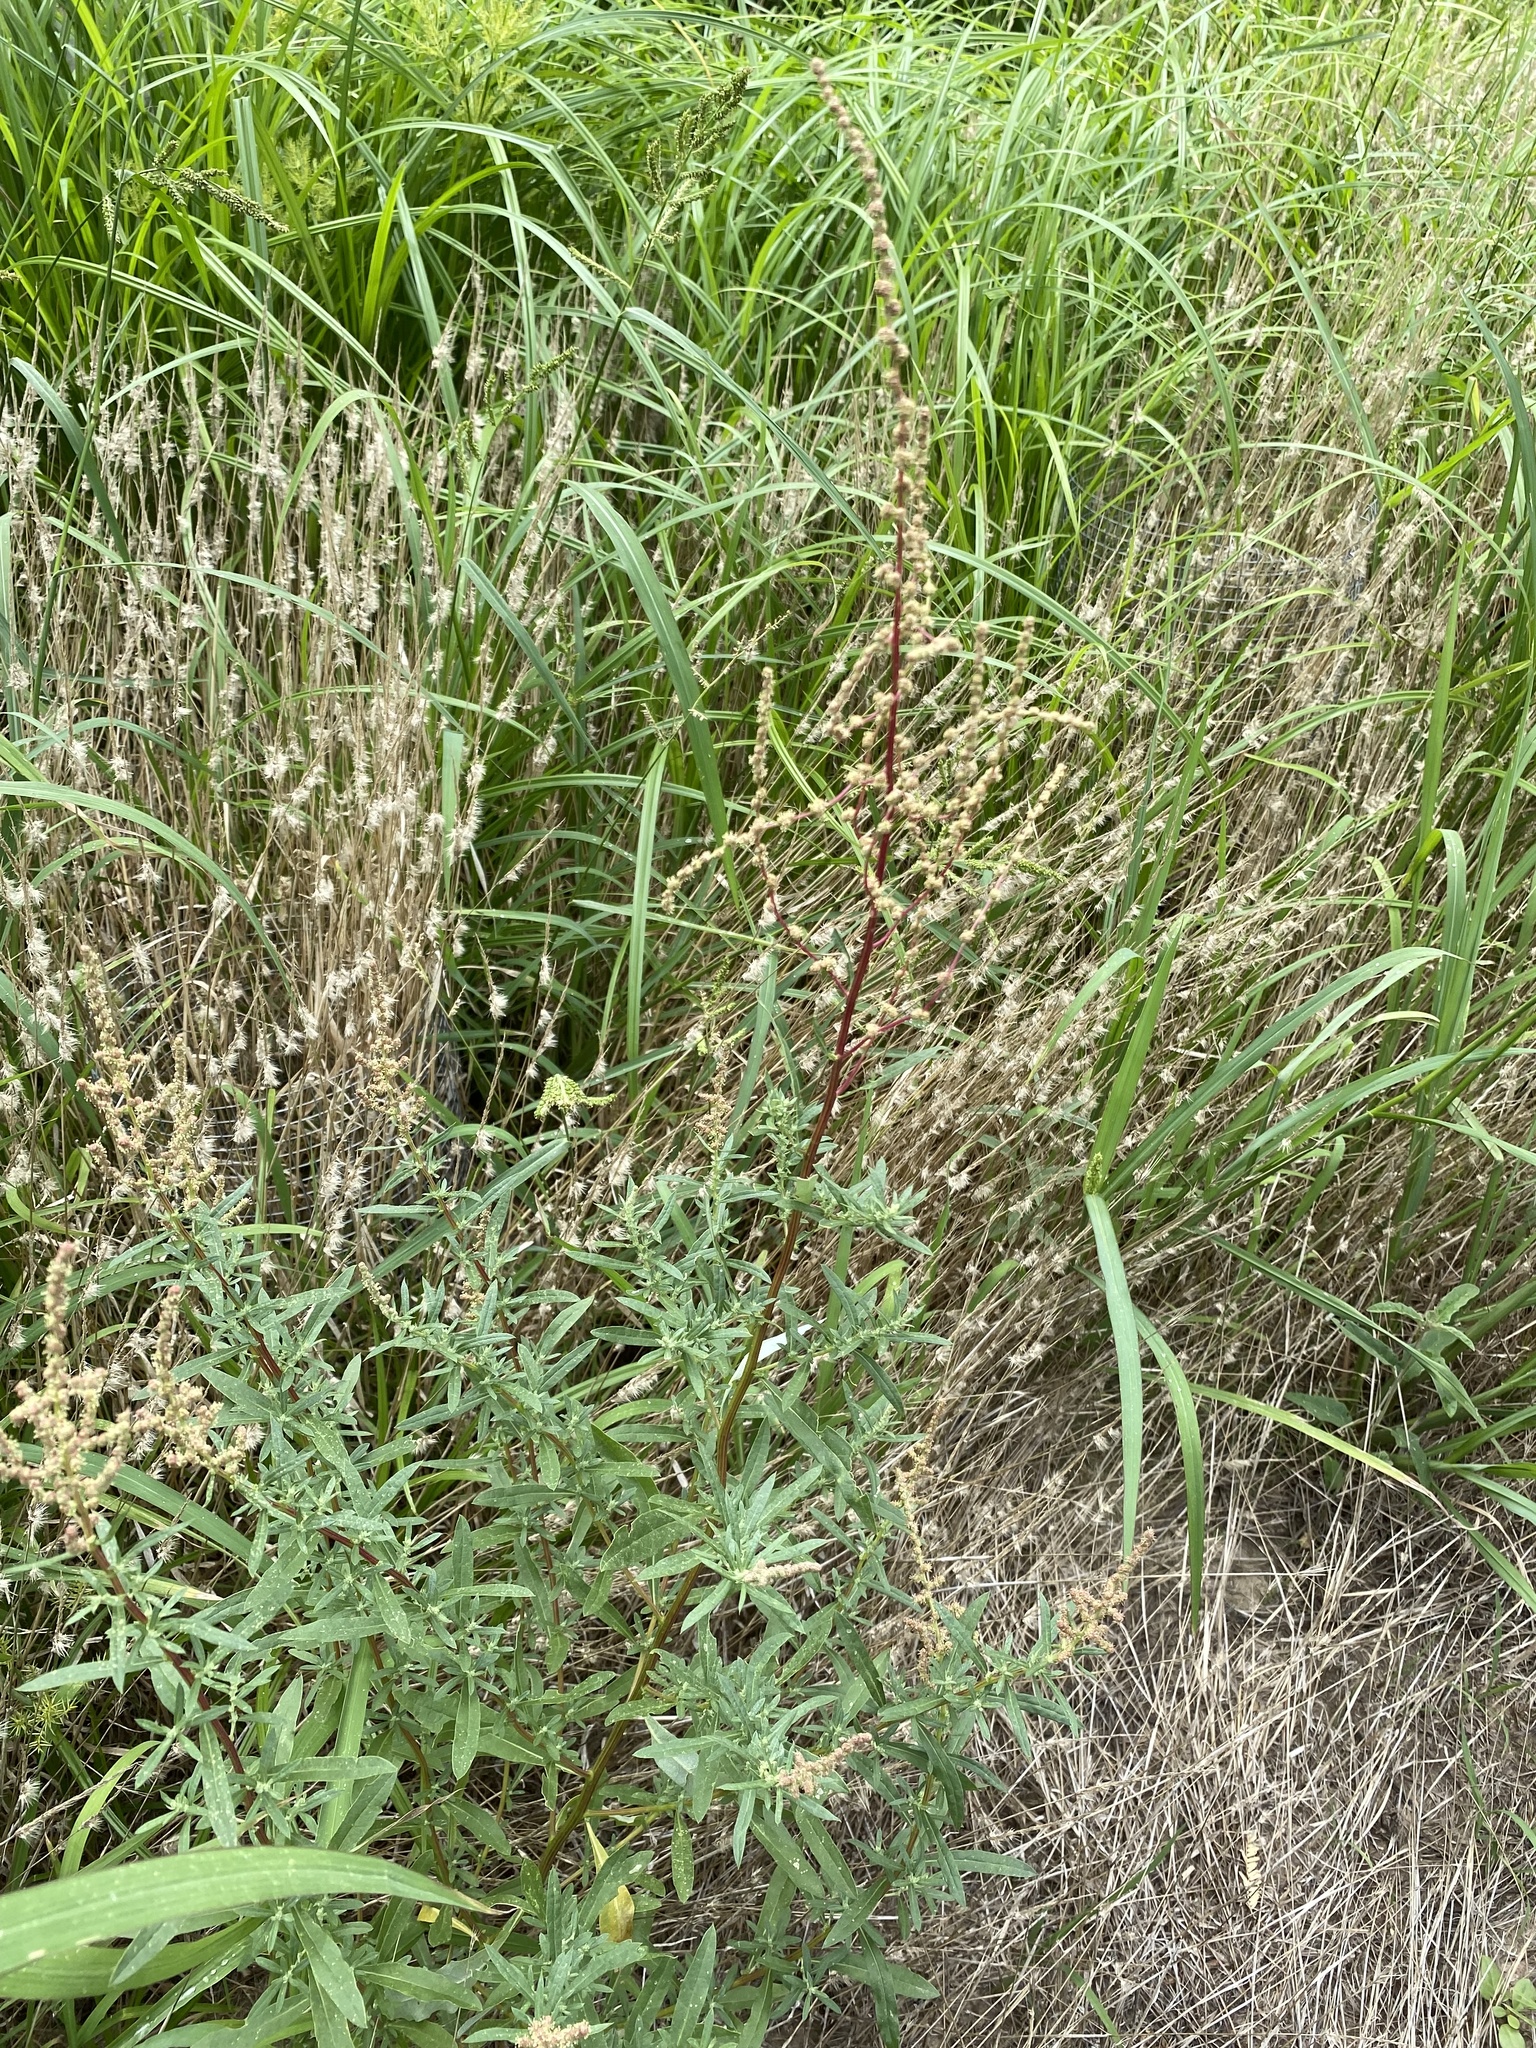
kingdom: Plantae
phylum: Tracheophyta
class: Magnoliopsida
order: Caryophyllales
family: Amaranthaceae
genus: Atriplex
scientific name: Atriplex wrightii
